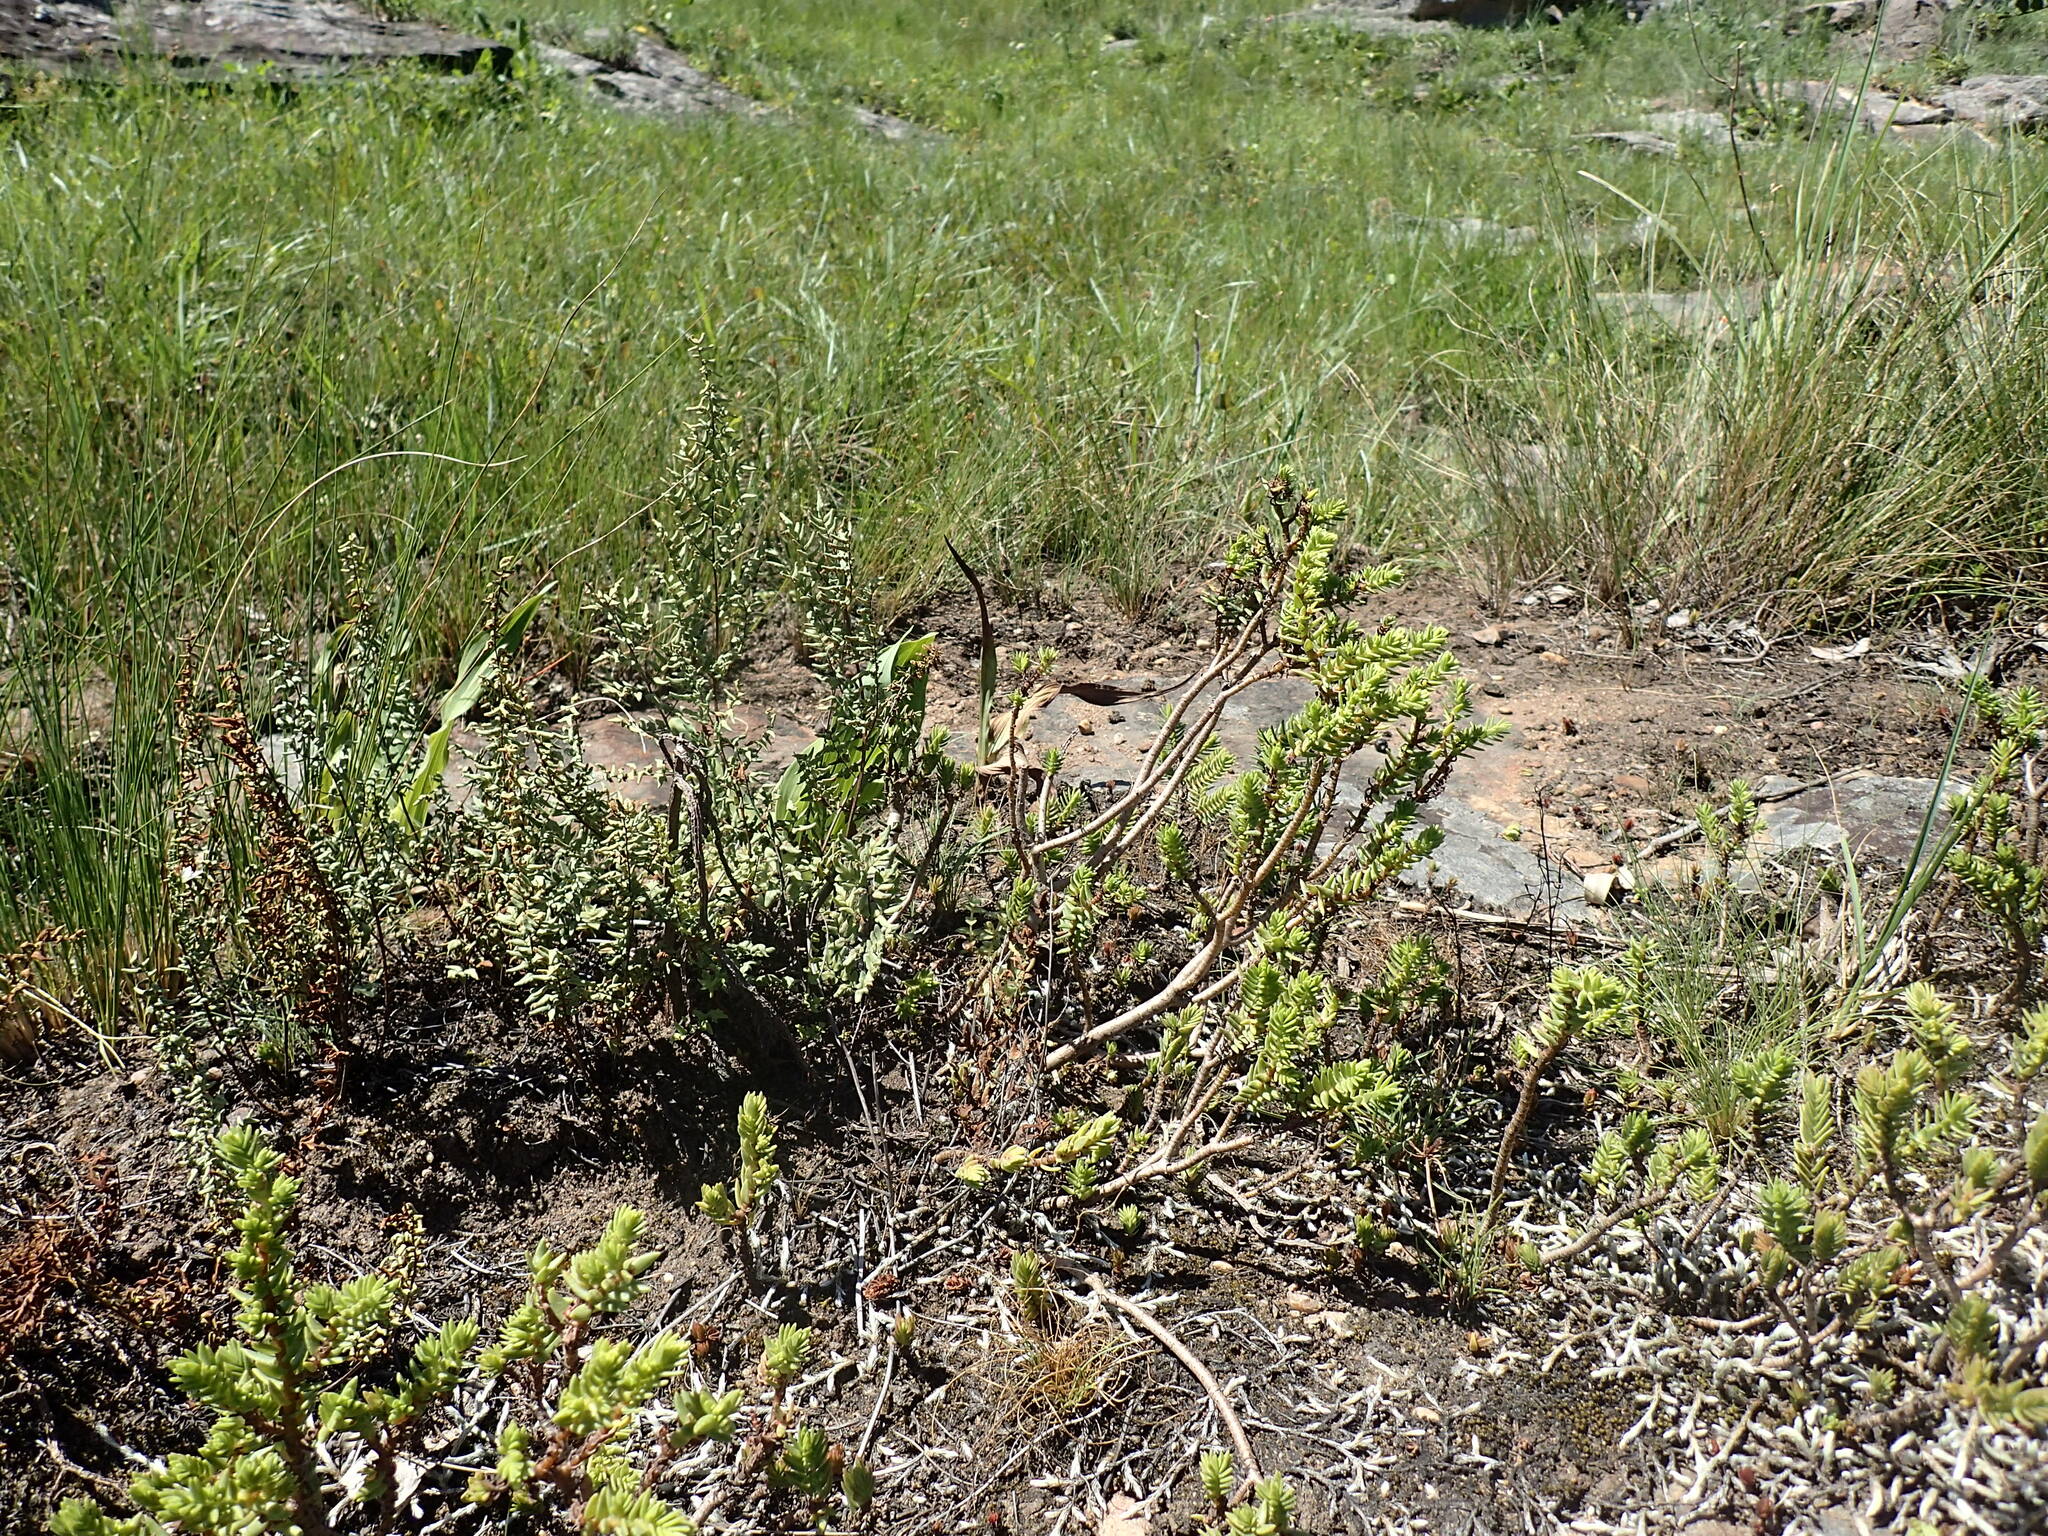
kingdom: Plantae
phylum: Tracheophyta
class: Magnoliopsida
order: Saxifragales
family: Crassulaceae
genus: Crassula
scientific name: Crassula ericoides
